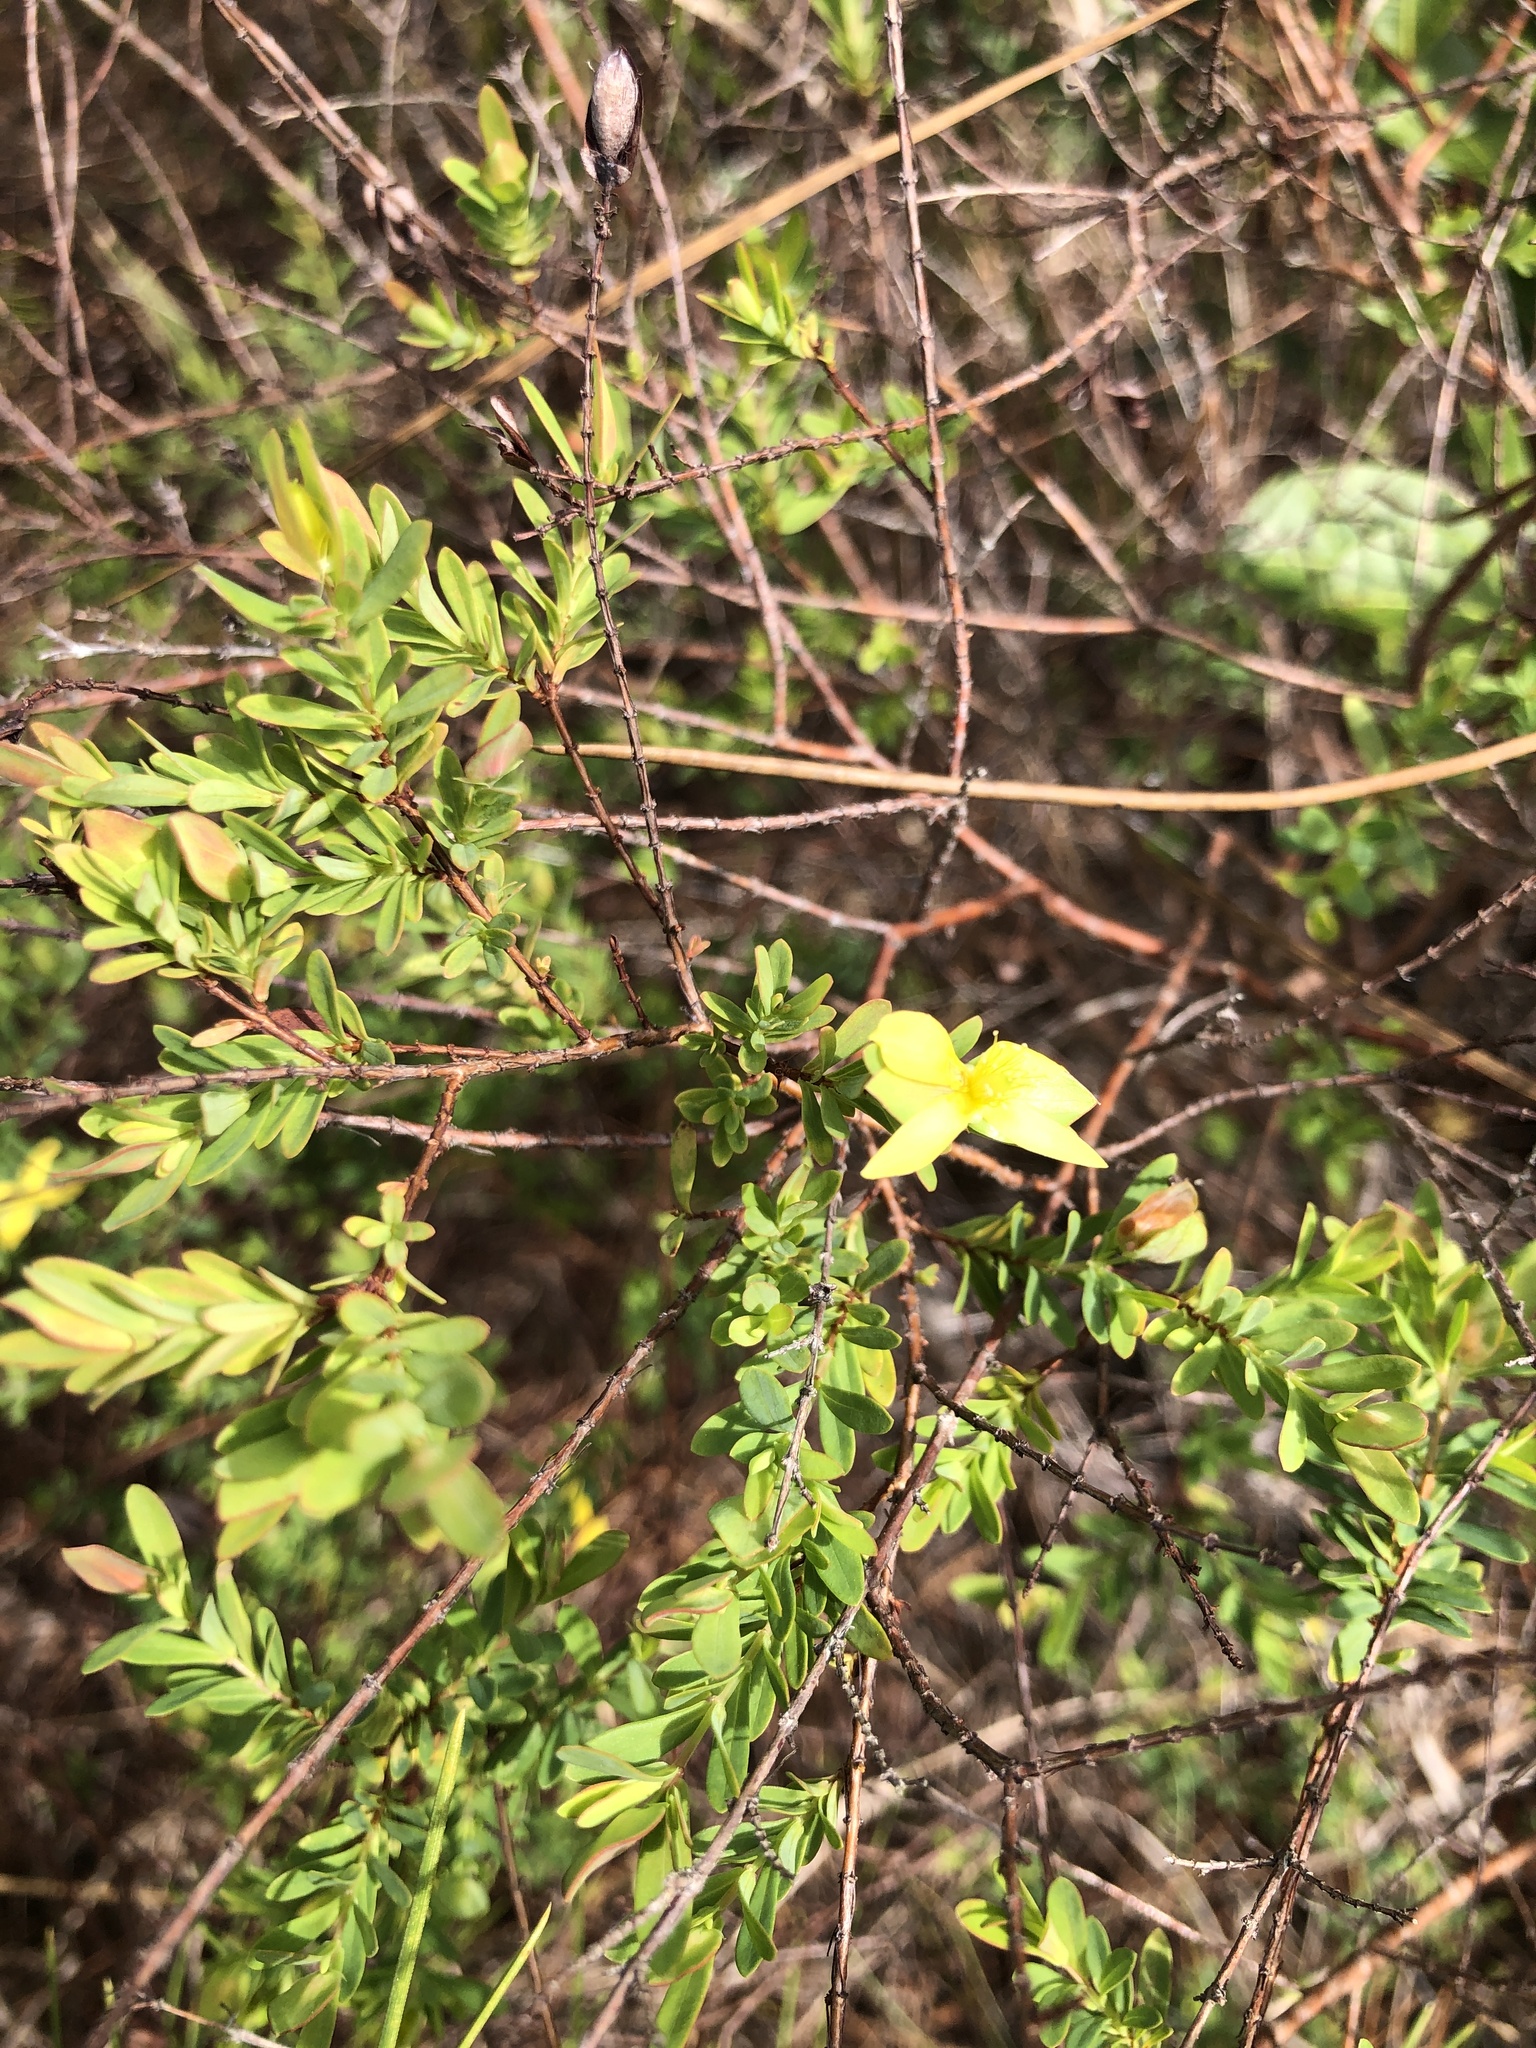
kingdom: Plantae
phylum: Tracheophyta
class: Magnoliopsida
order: Malpighiales
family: Hypericaceae
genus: Hypericum
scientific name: Hypericum hypericoides
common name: St. andrew's cross
